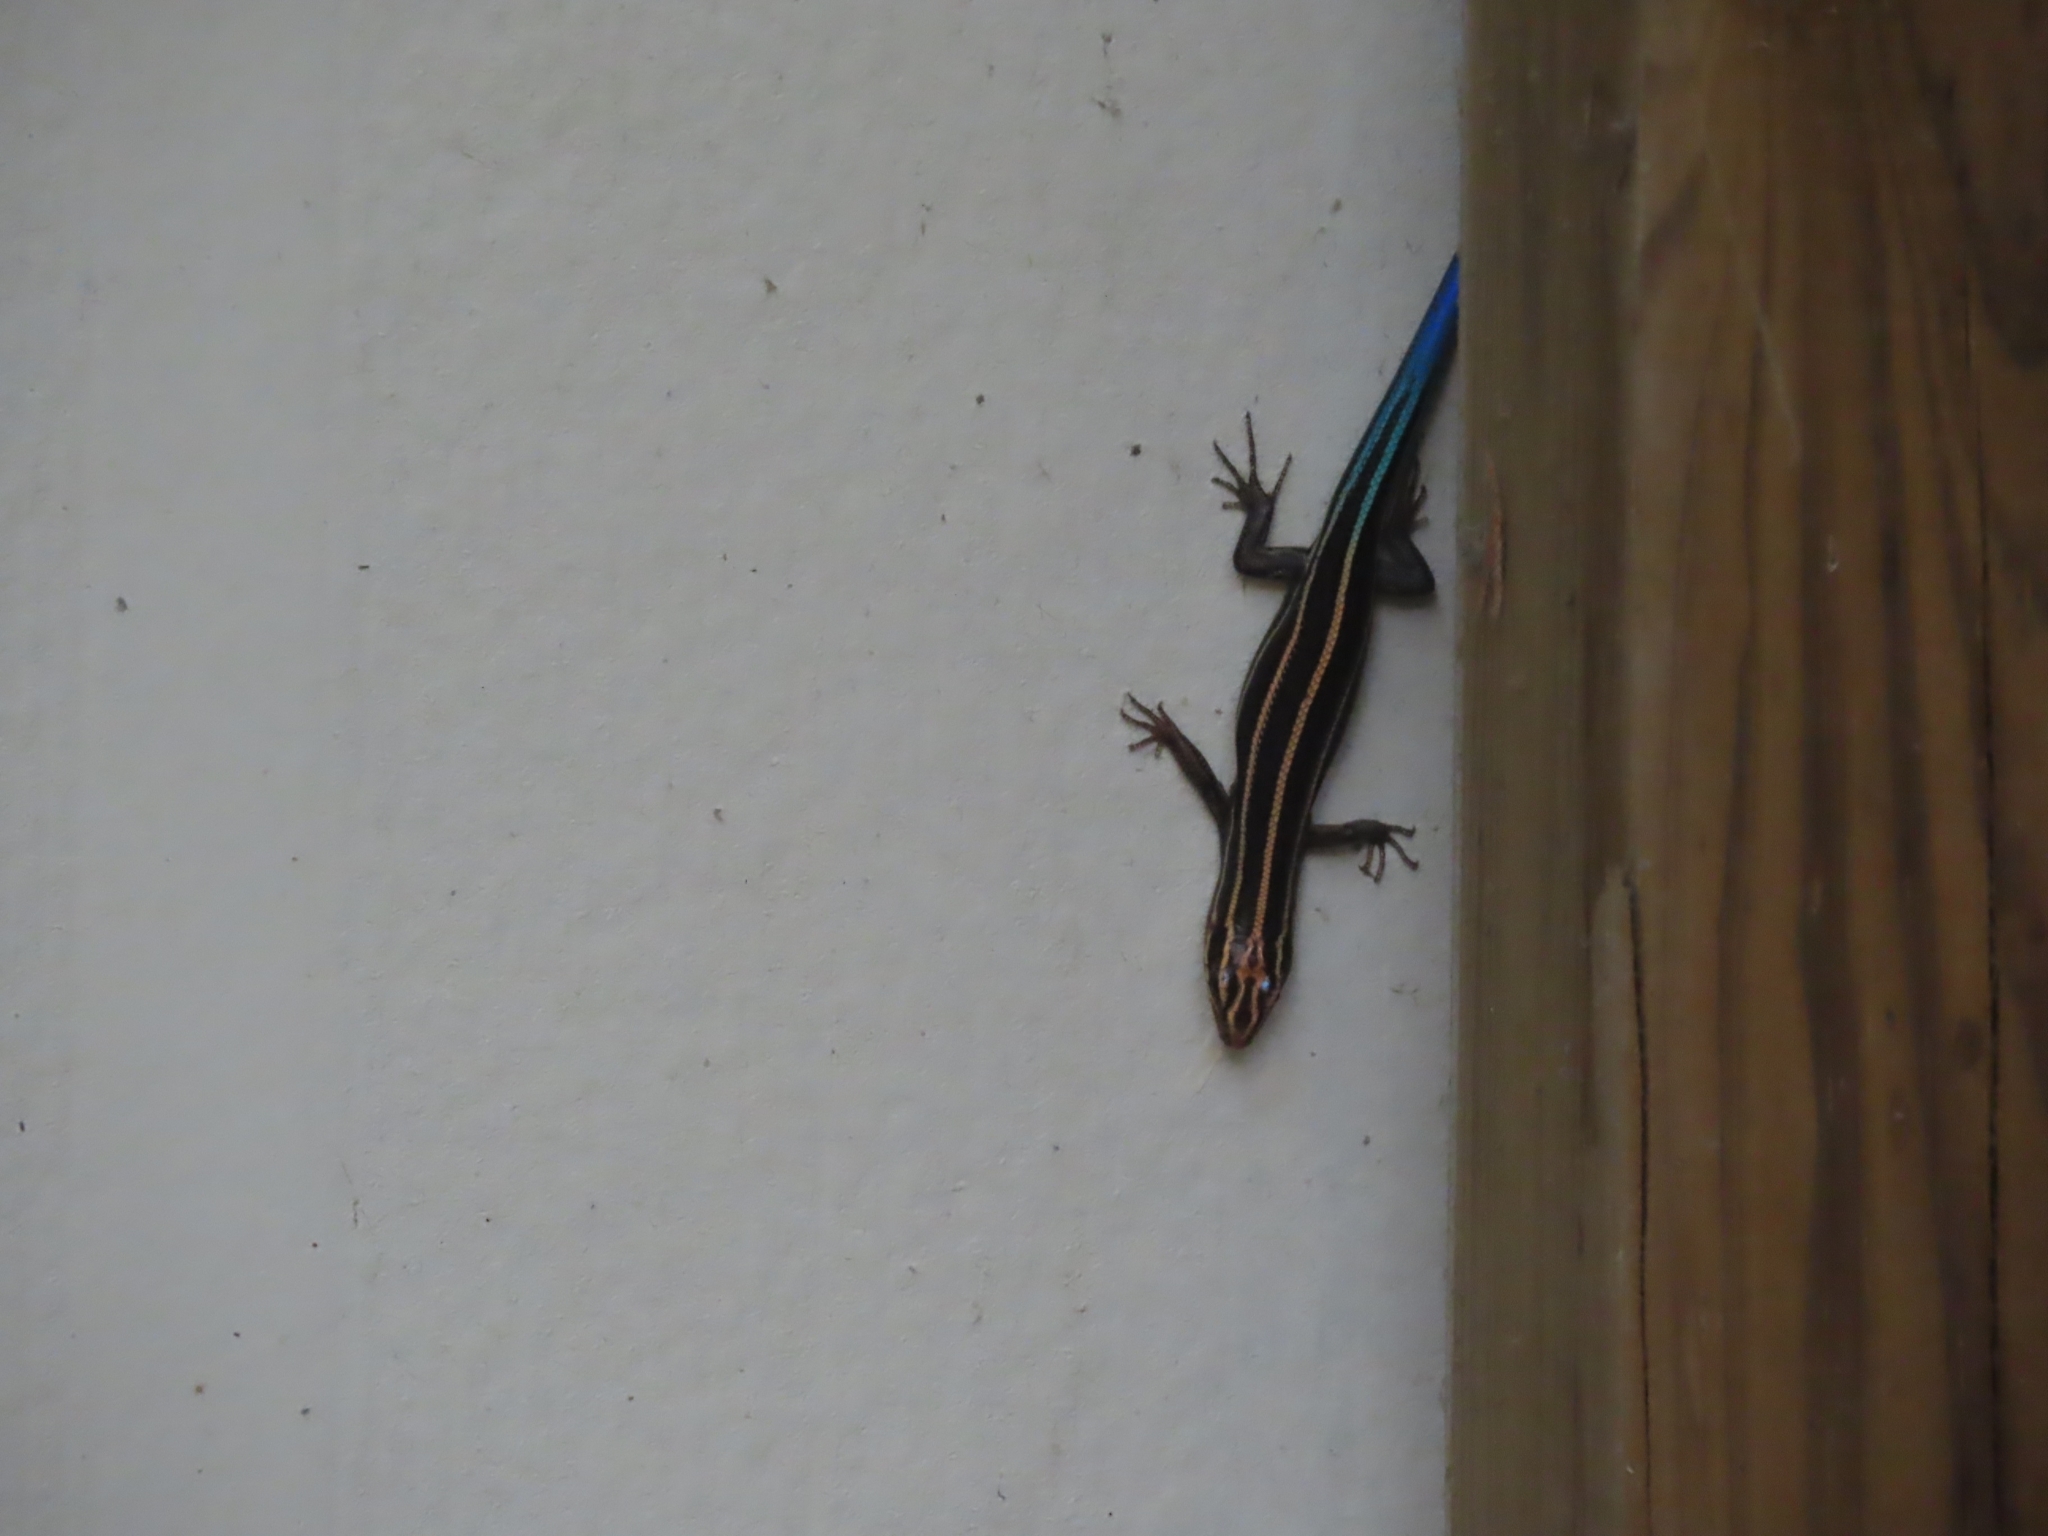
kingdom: Animalia
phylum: Chordata
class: Squamata
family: Scincidae
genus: Plestiodon
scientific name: Plestiodon fasciatus
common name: Five-lined skink
